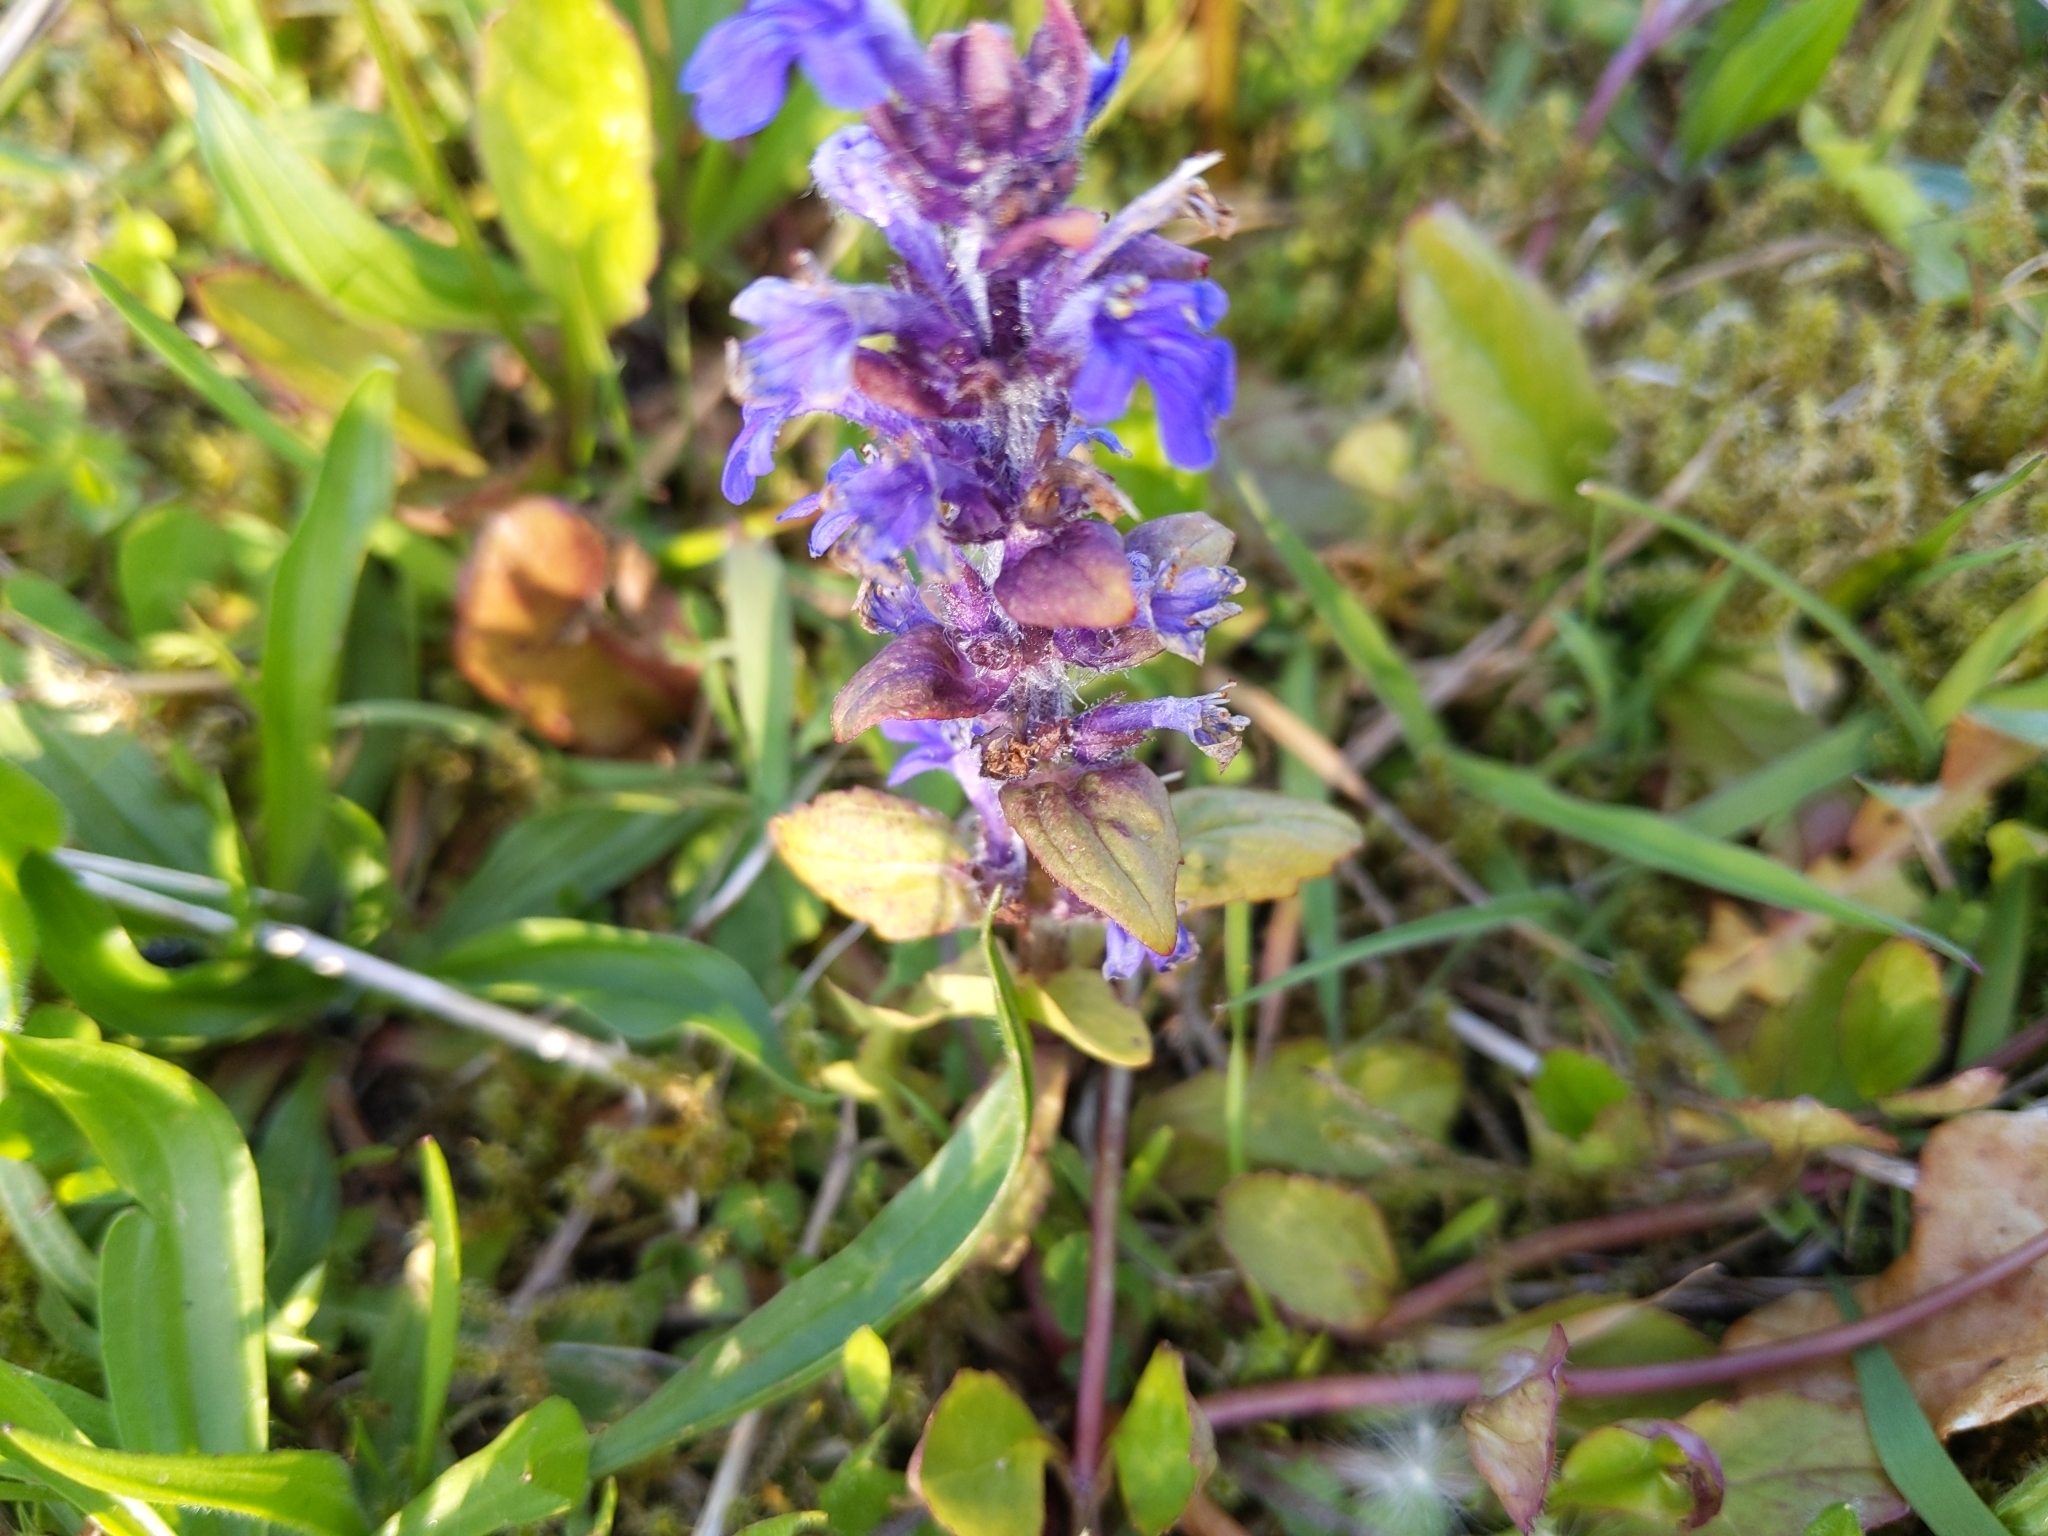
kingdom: Plantae
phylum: Tracheophyta
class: Magnoliopsida
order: Lamiales
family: Lamiaceae
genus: Ajuga
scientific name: Ajuga reptans
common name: Bugle
